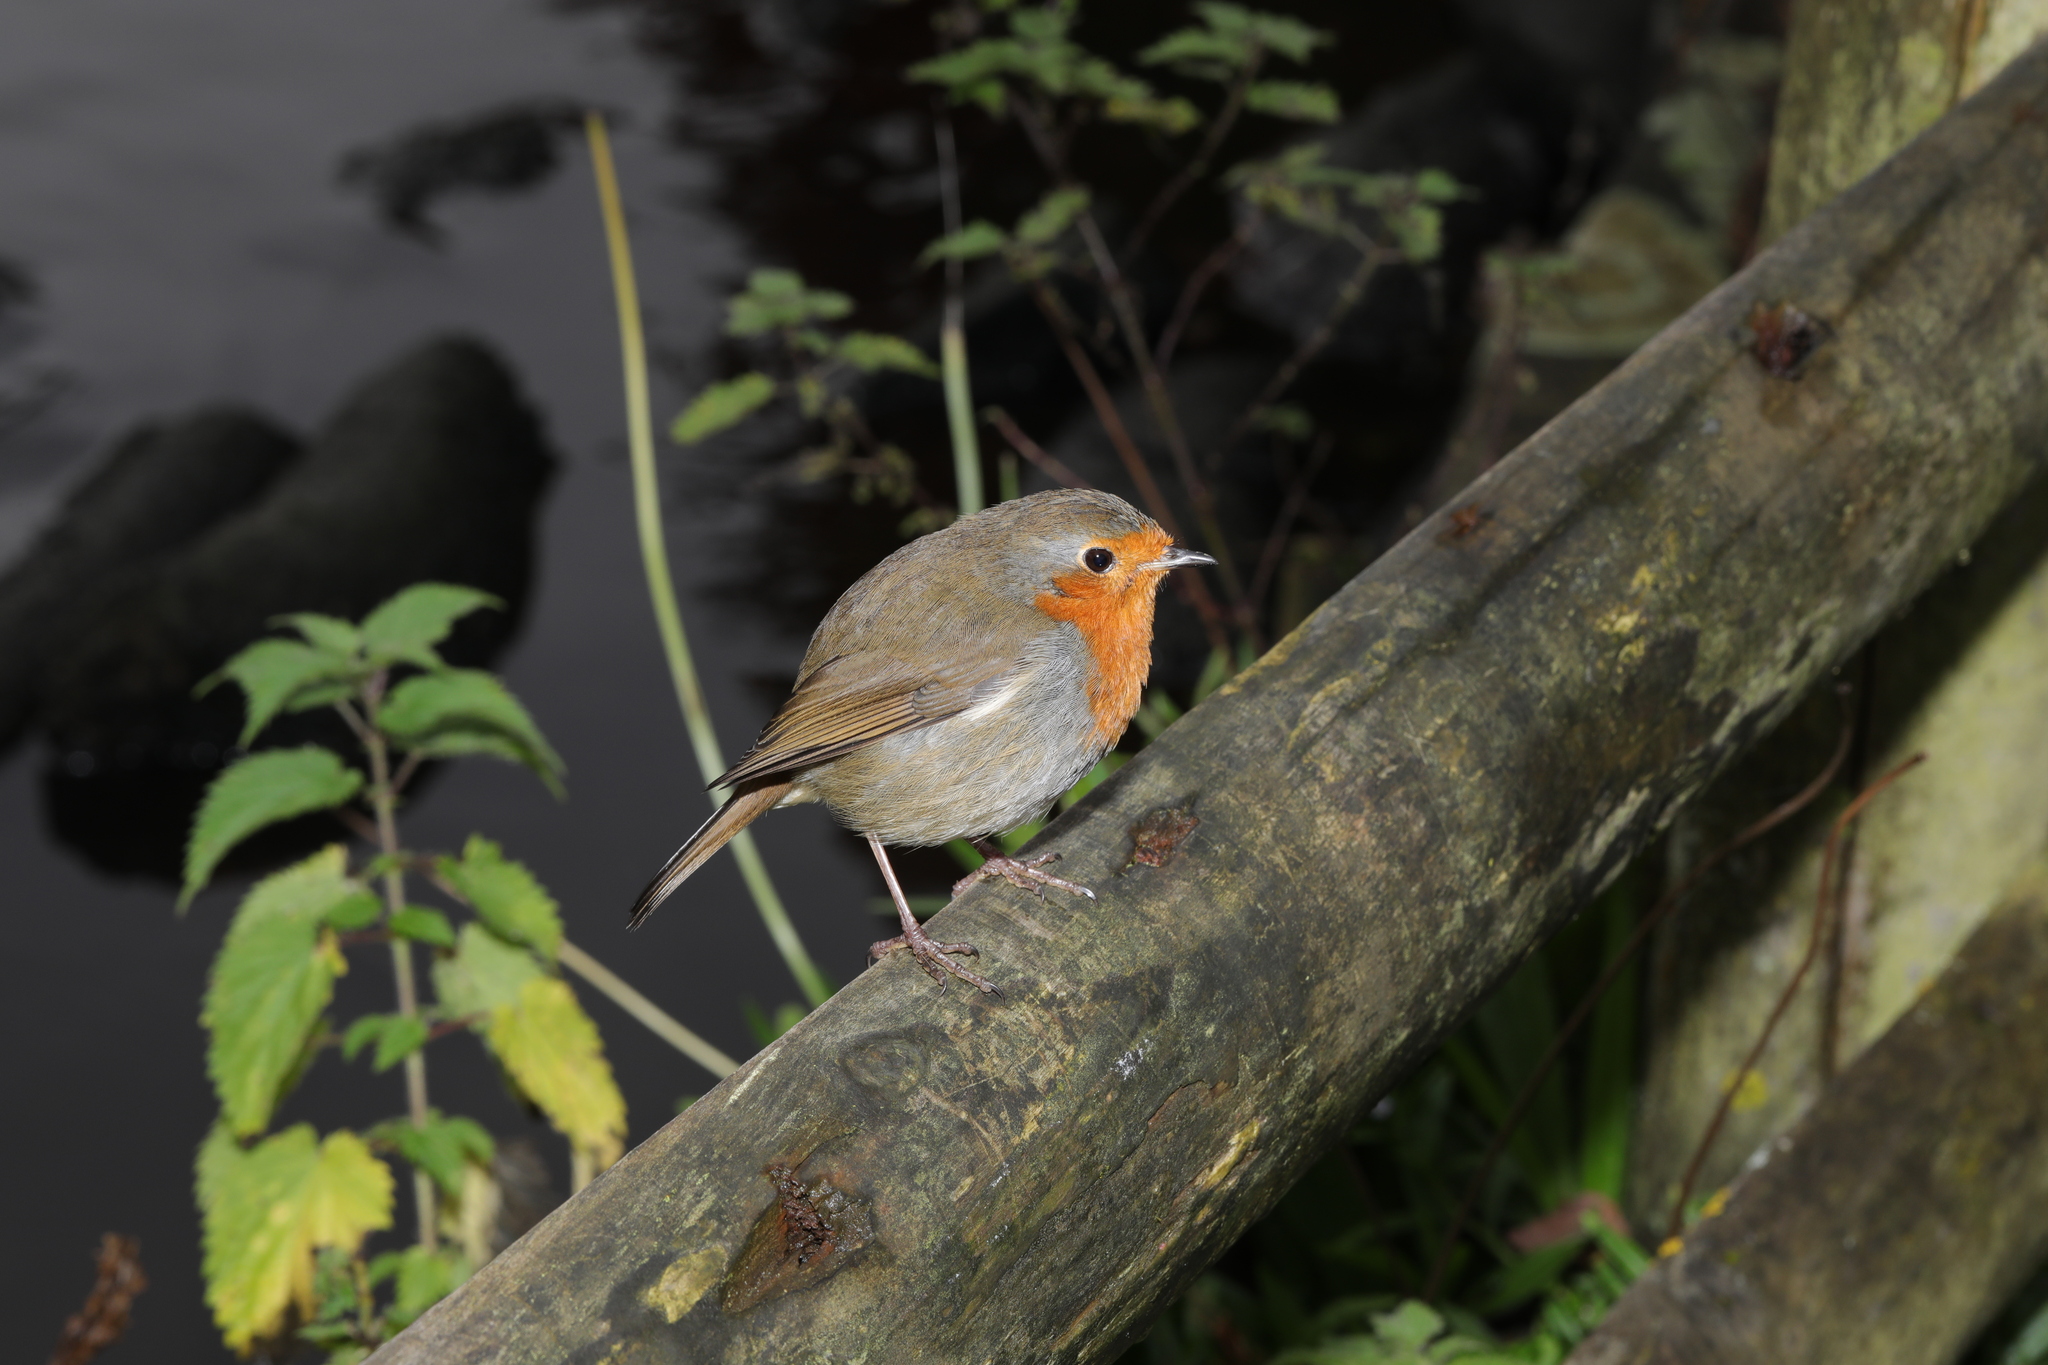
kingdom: Animalia
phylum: Chordata
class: Aves
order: Passeriformes
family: Muscicapidae
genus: Erithacus
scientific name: Erithacus rubecula
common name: European robin
